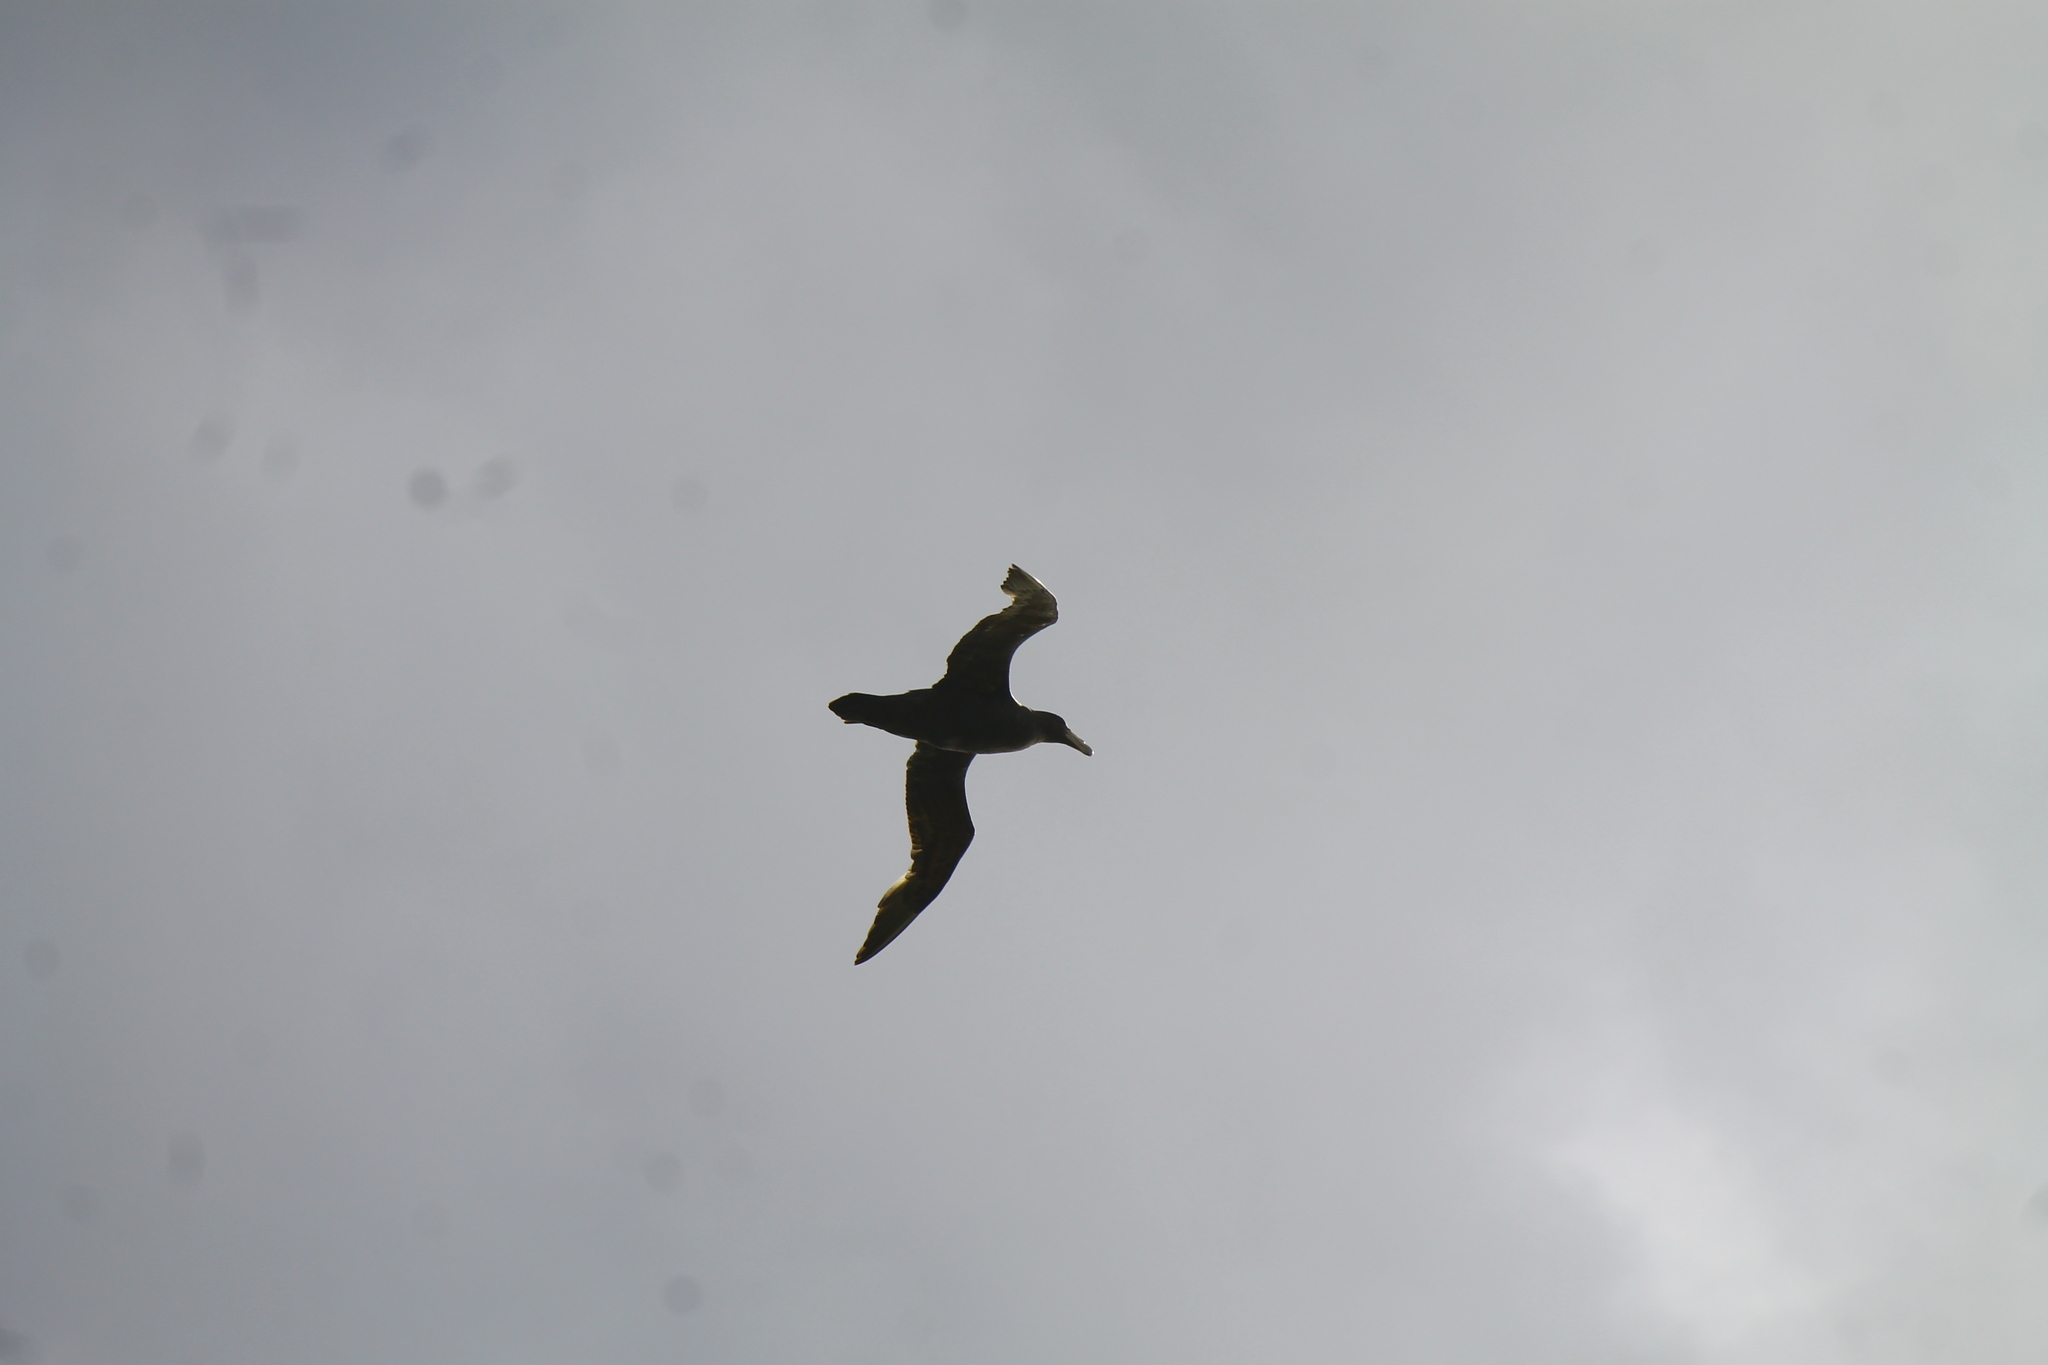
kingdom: Animalia
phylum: Chordata
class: Aves
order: Procellariiformes
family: Procellariidae
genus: Macronectes
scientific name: Macronectes giganteus
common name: Southern giant petrel
